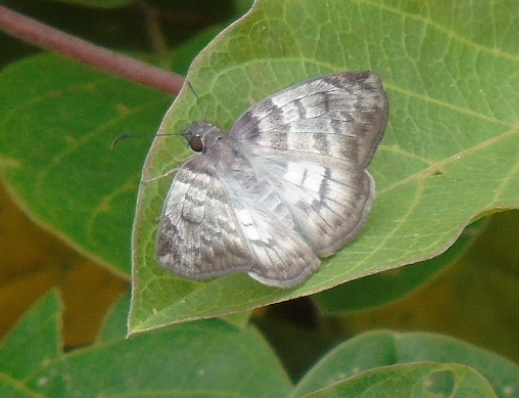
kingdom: Animalia
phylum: Arthropoda
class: Insecta
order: Lepidoptera
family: Hesperiidae
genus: Mylon
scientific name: Mylon pelopidas
